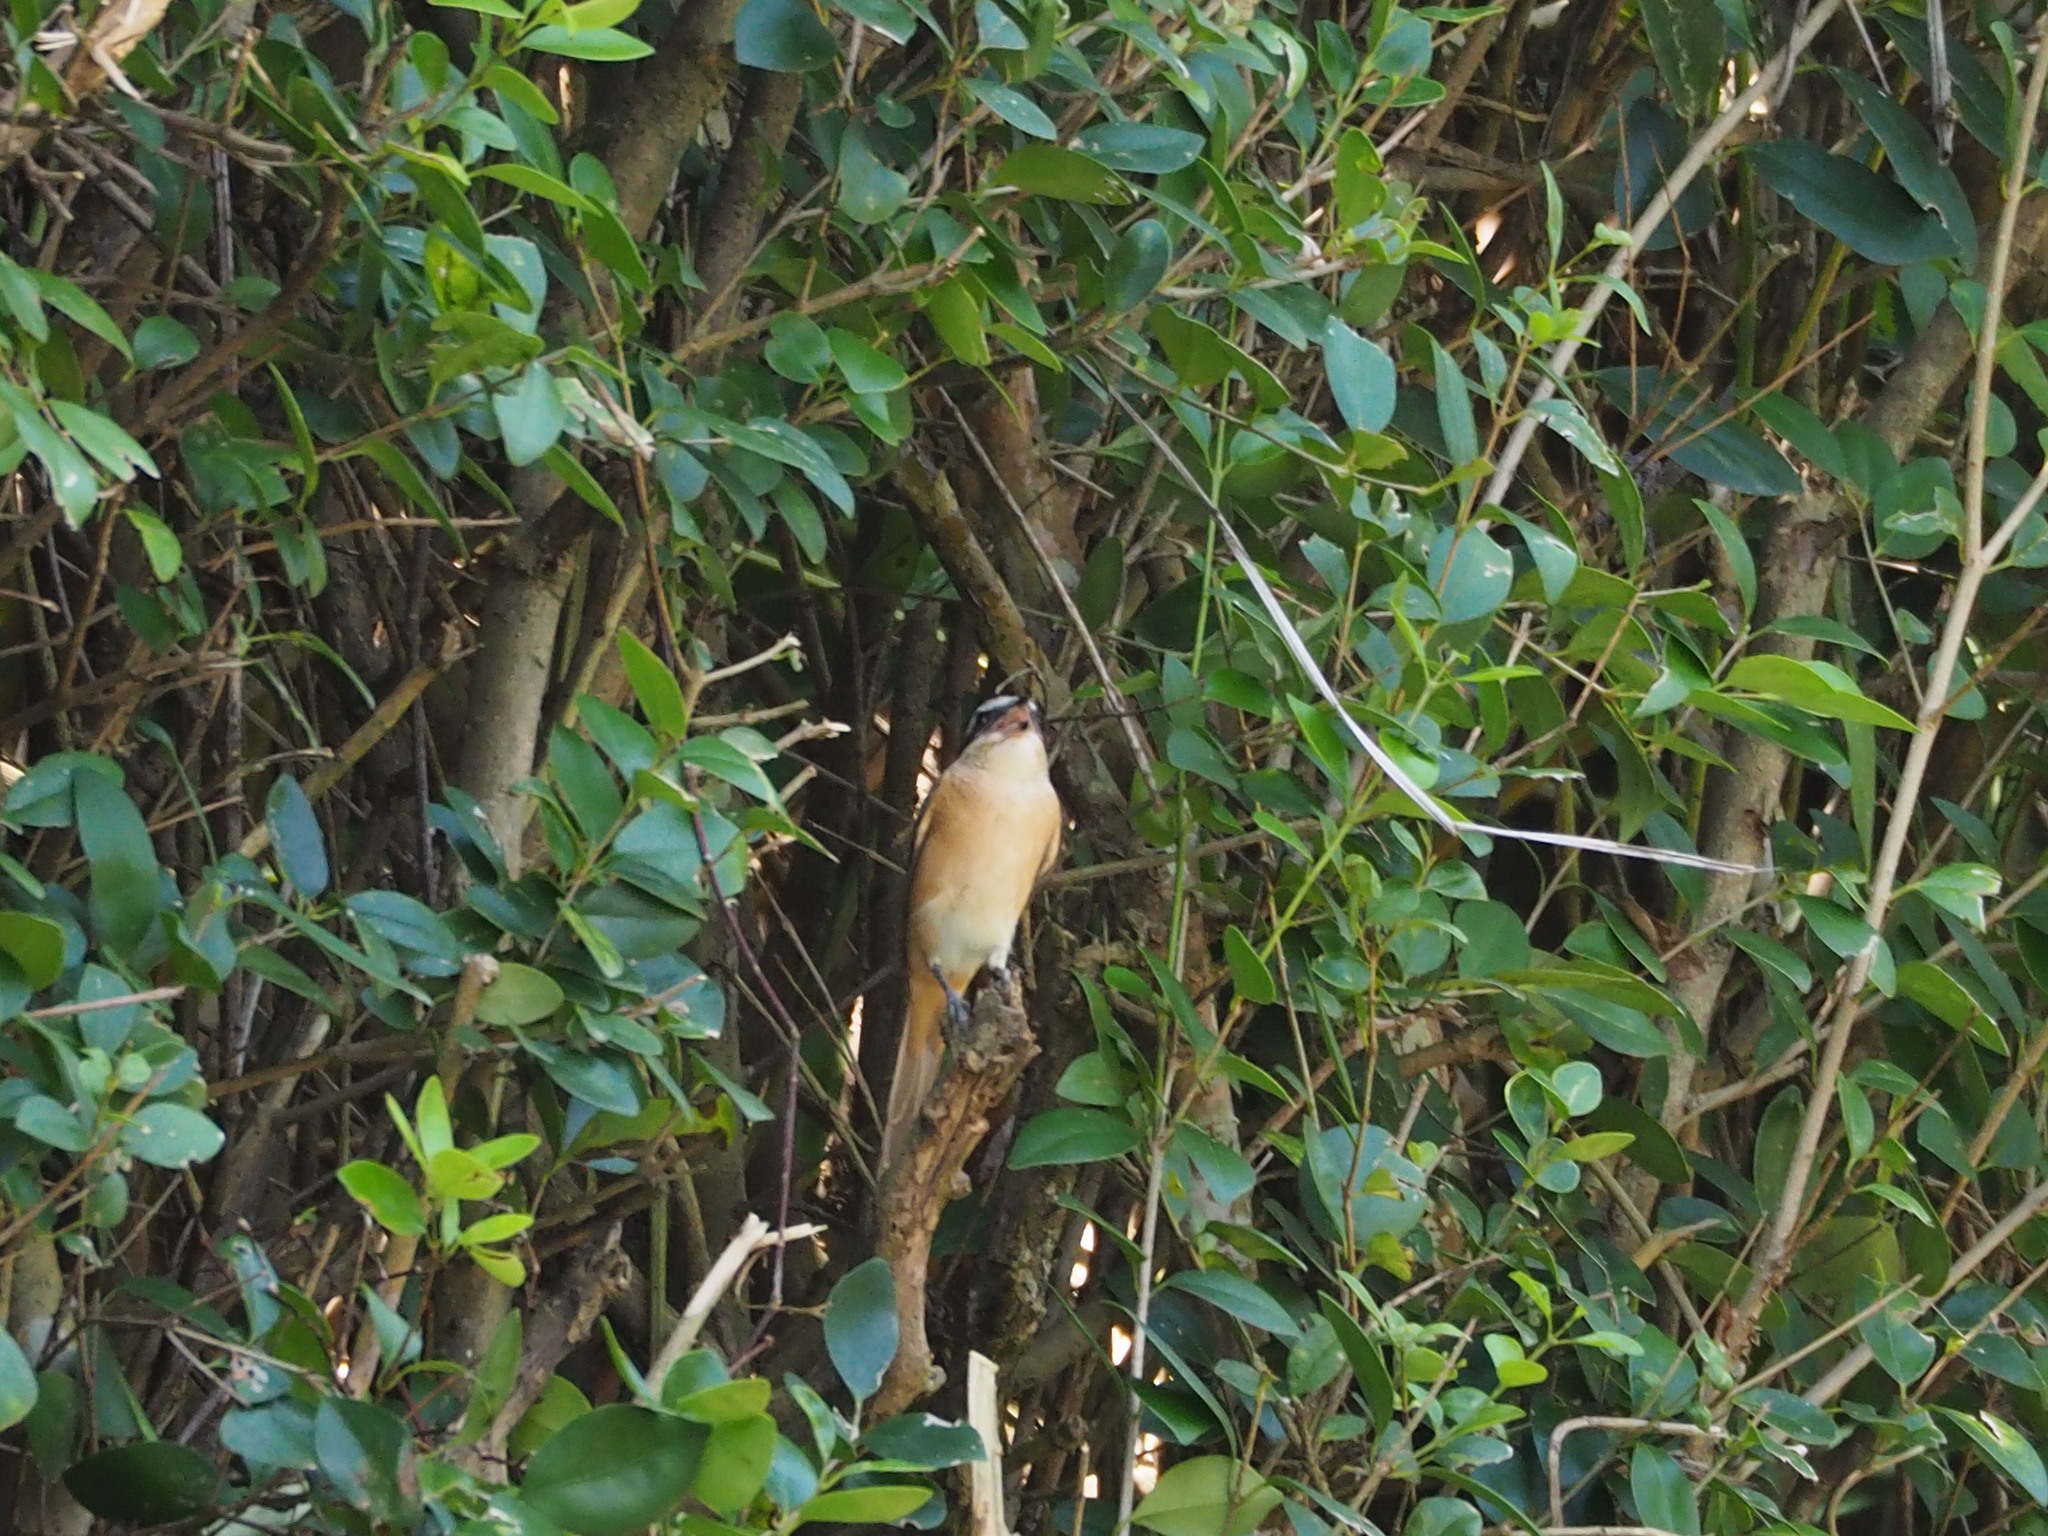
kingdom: Animalia
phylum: Chordata
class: Aves
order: Passeriformes
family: Laniidae
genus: Lanius
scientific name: Lanius cristatus
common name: Brown shrike
